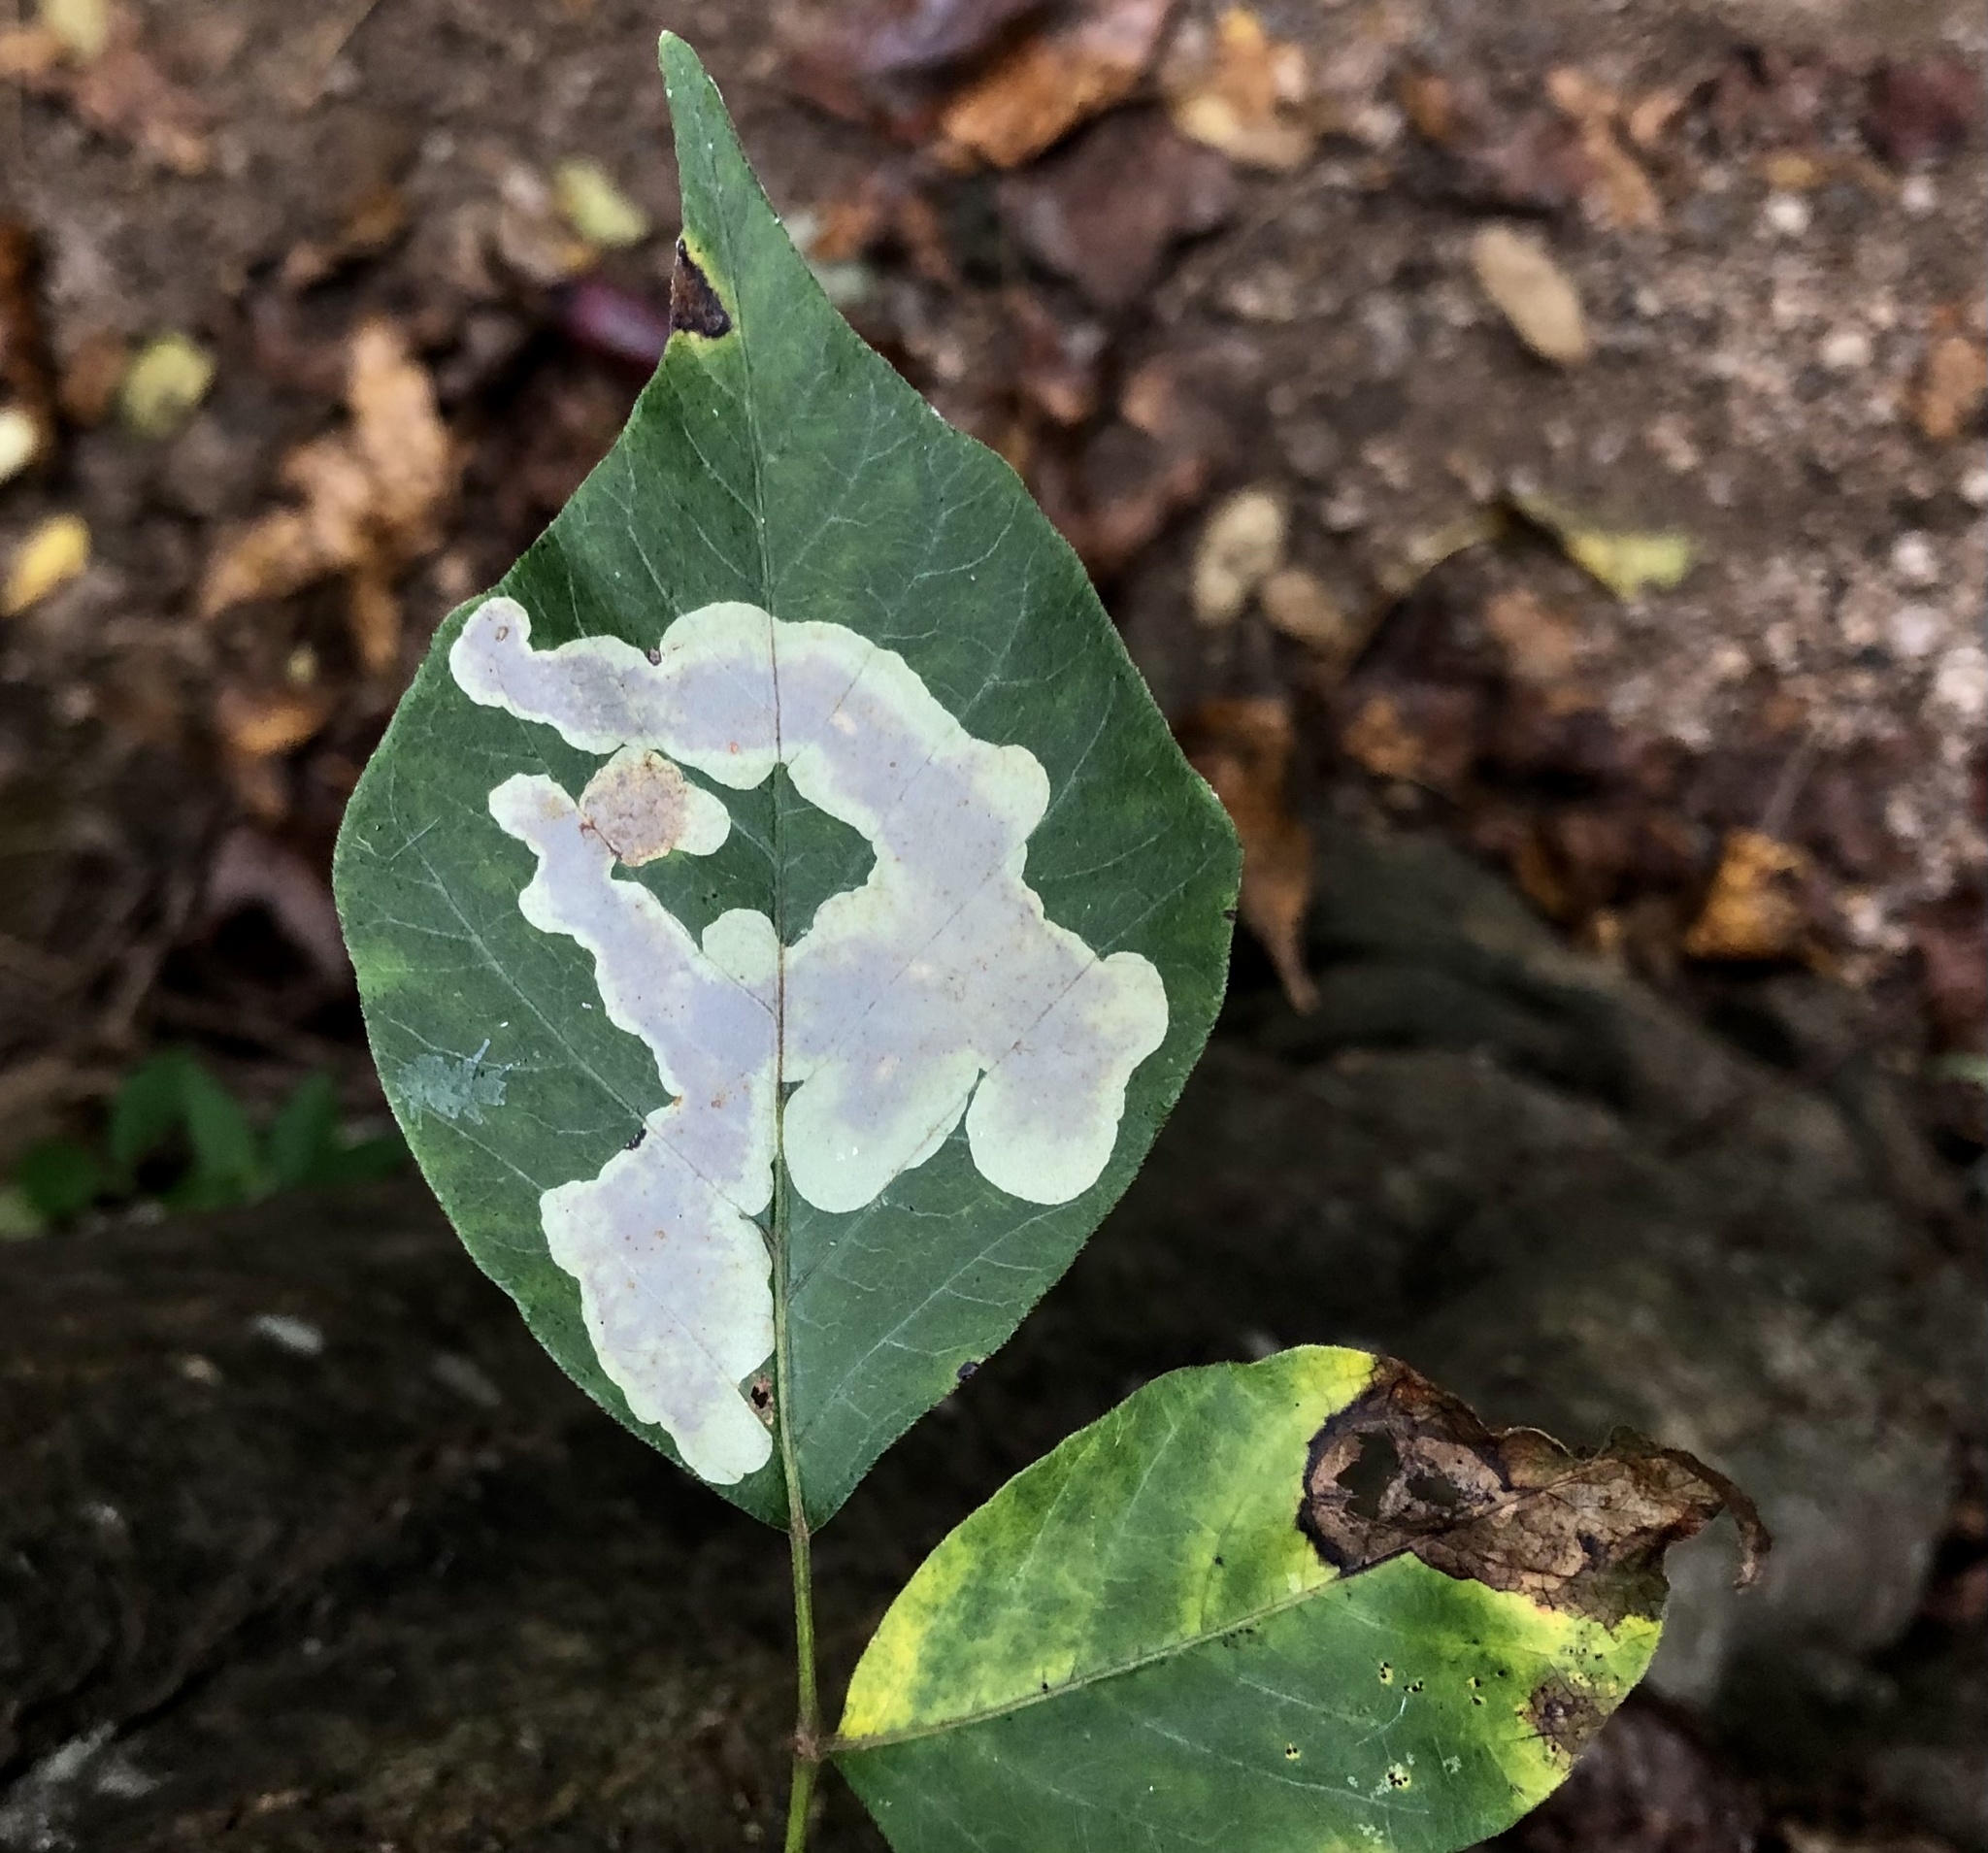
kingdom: Animalia
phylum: Arthropoda
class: Insecta
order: Lepidoptera
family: Gracillariidae
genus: Cameraria
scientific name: Cameraria guttifinitella
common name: Poison ivy leaf-miner moth
